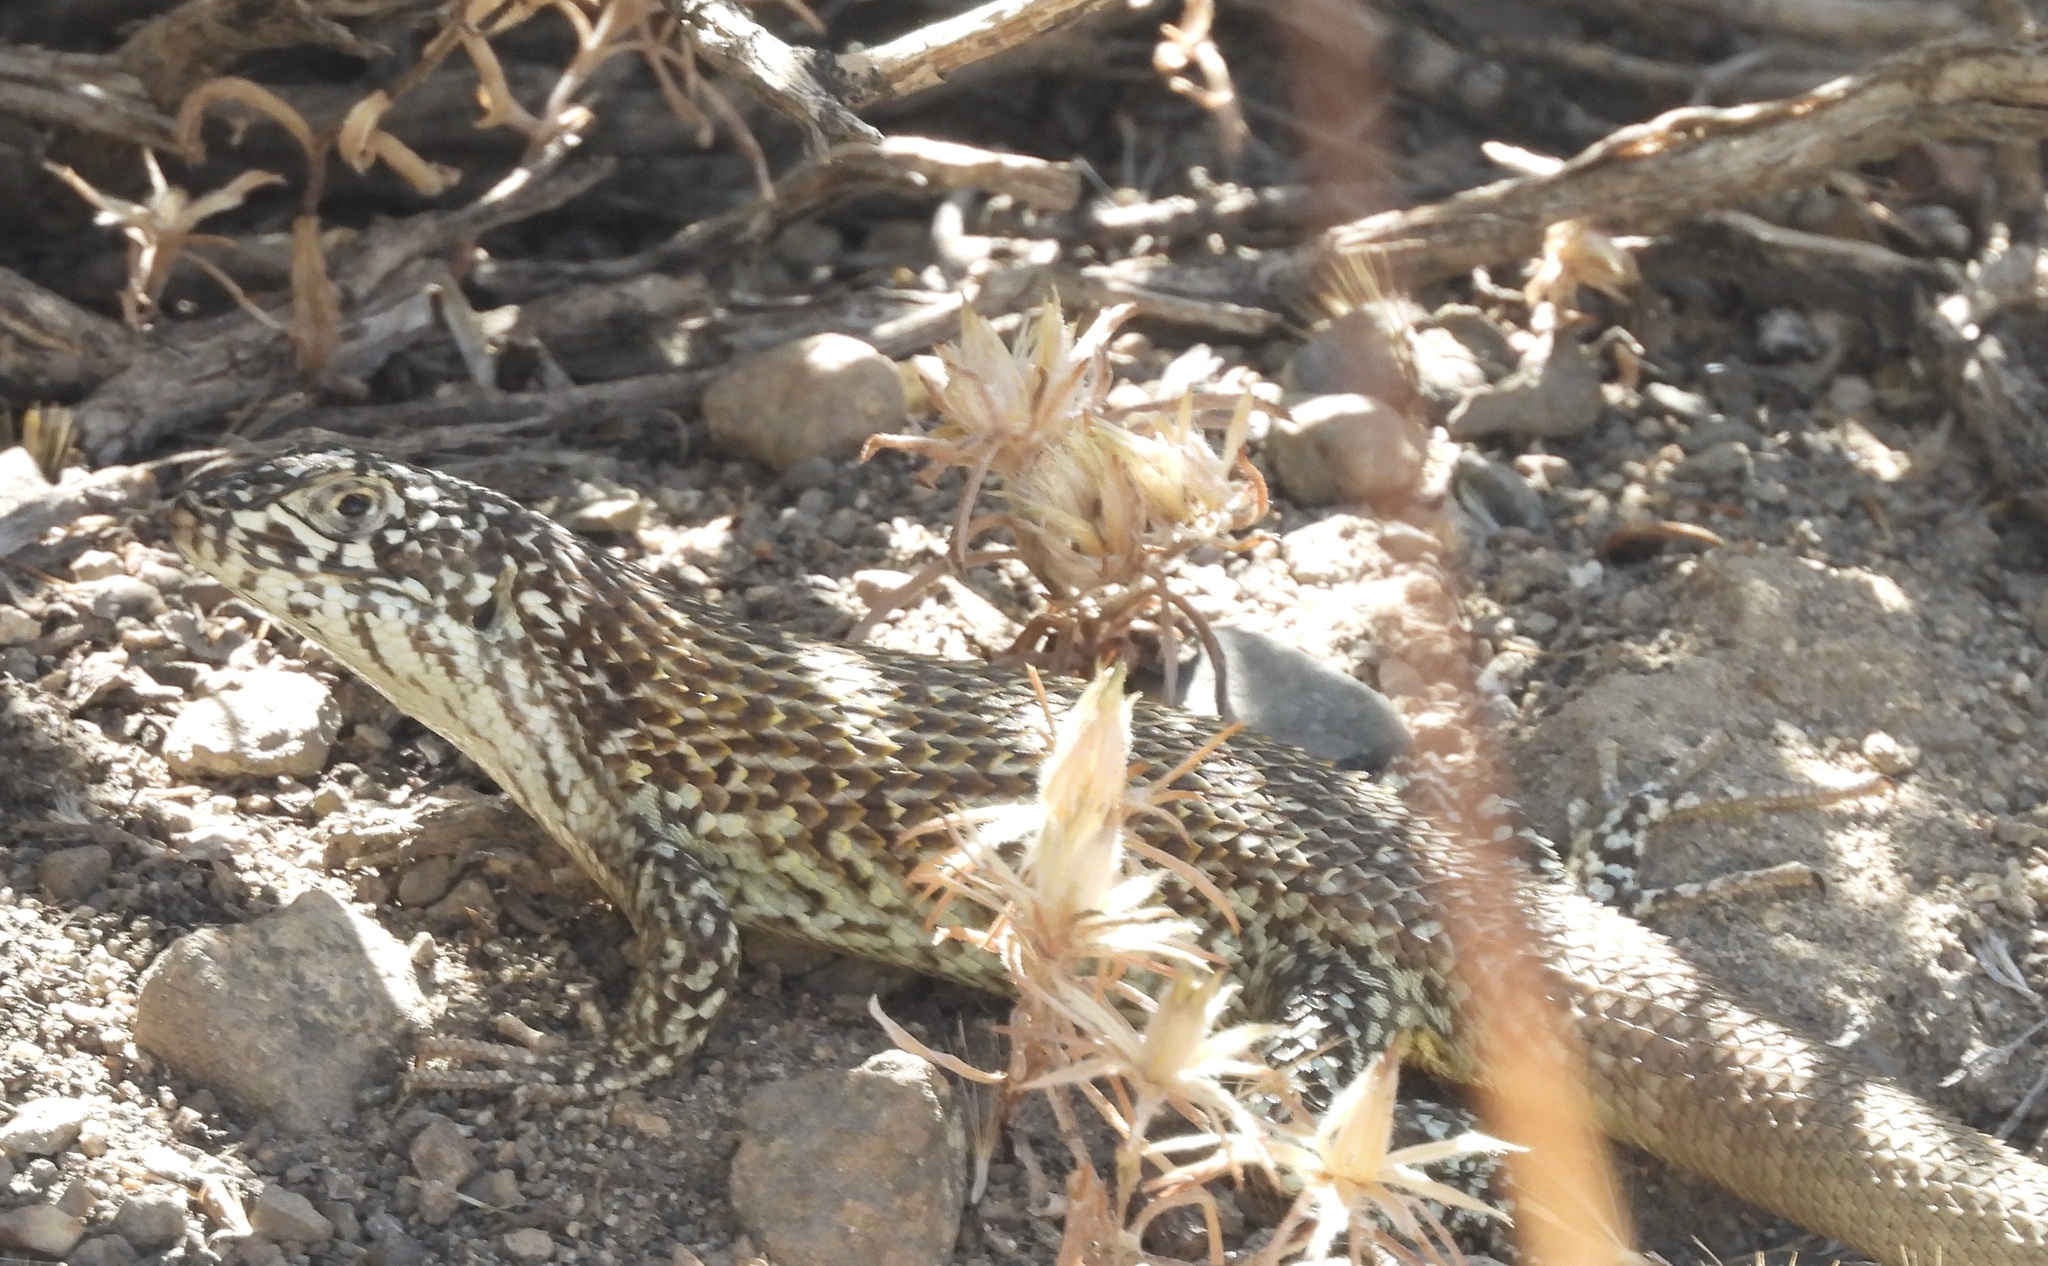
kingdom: Animalia
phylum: Chordata
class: Squamata
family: Liolaemidae
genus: Liolaemus
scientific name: Liolaemus nitidus
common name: Shining tree iguana
